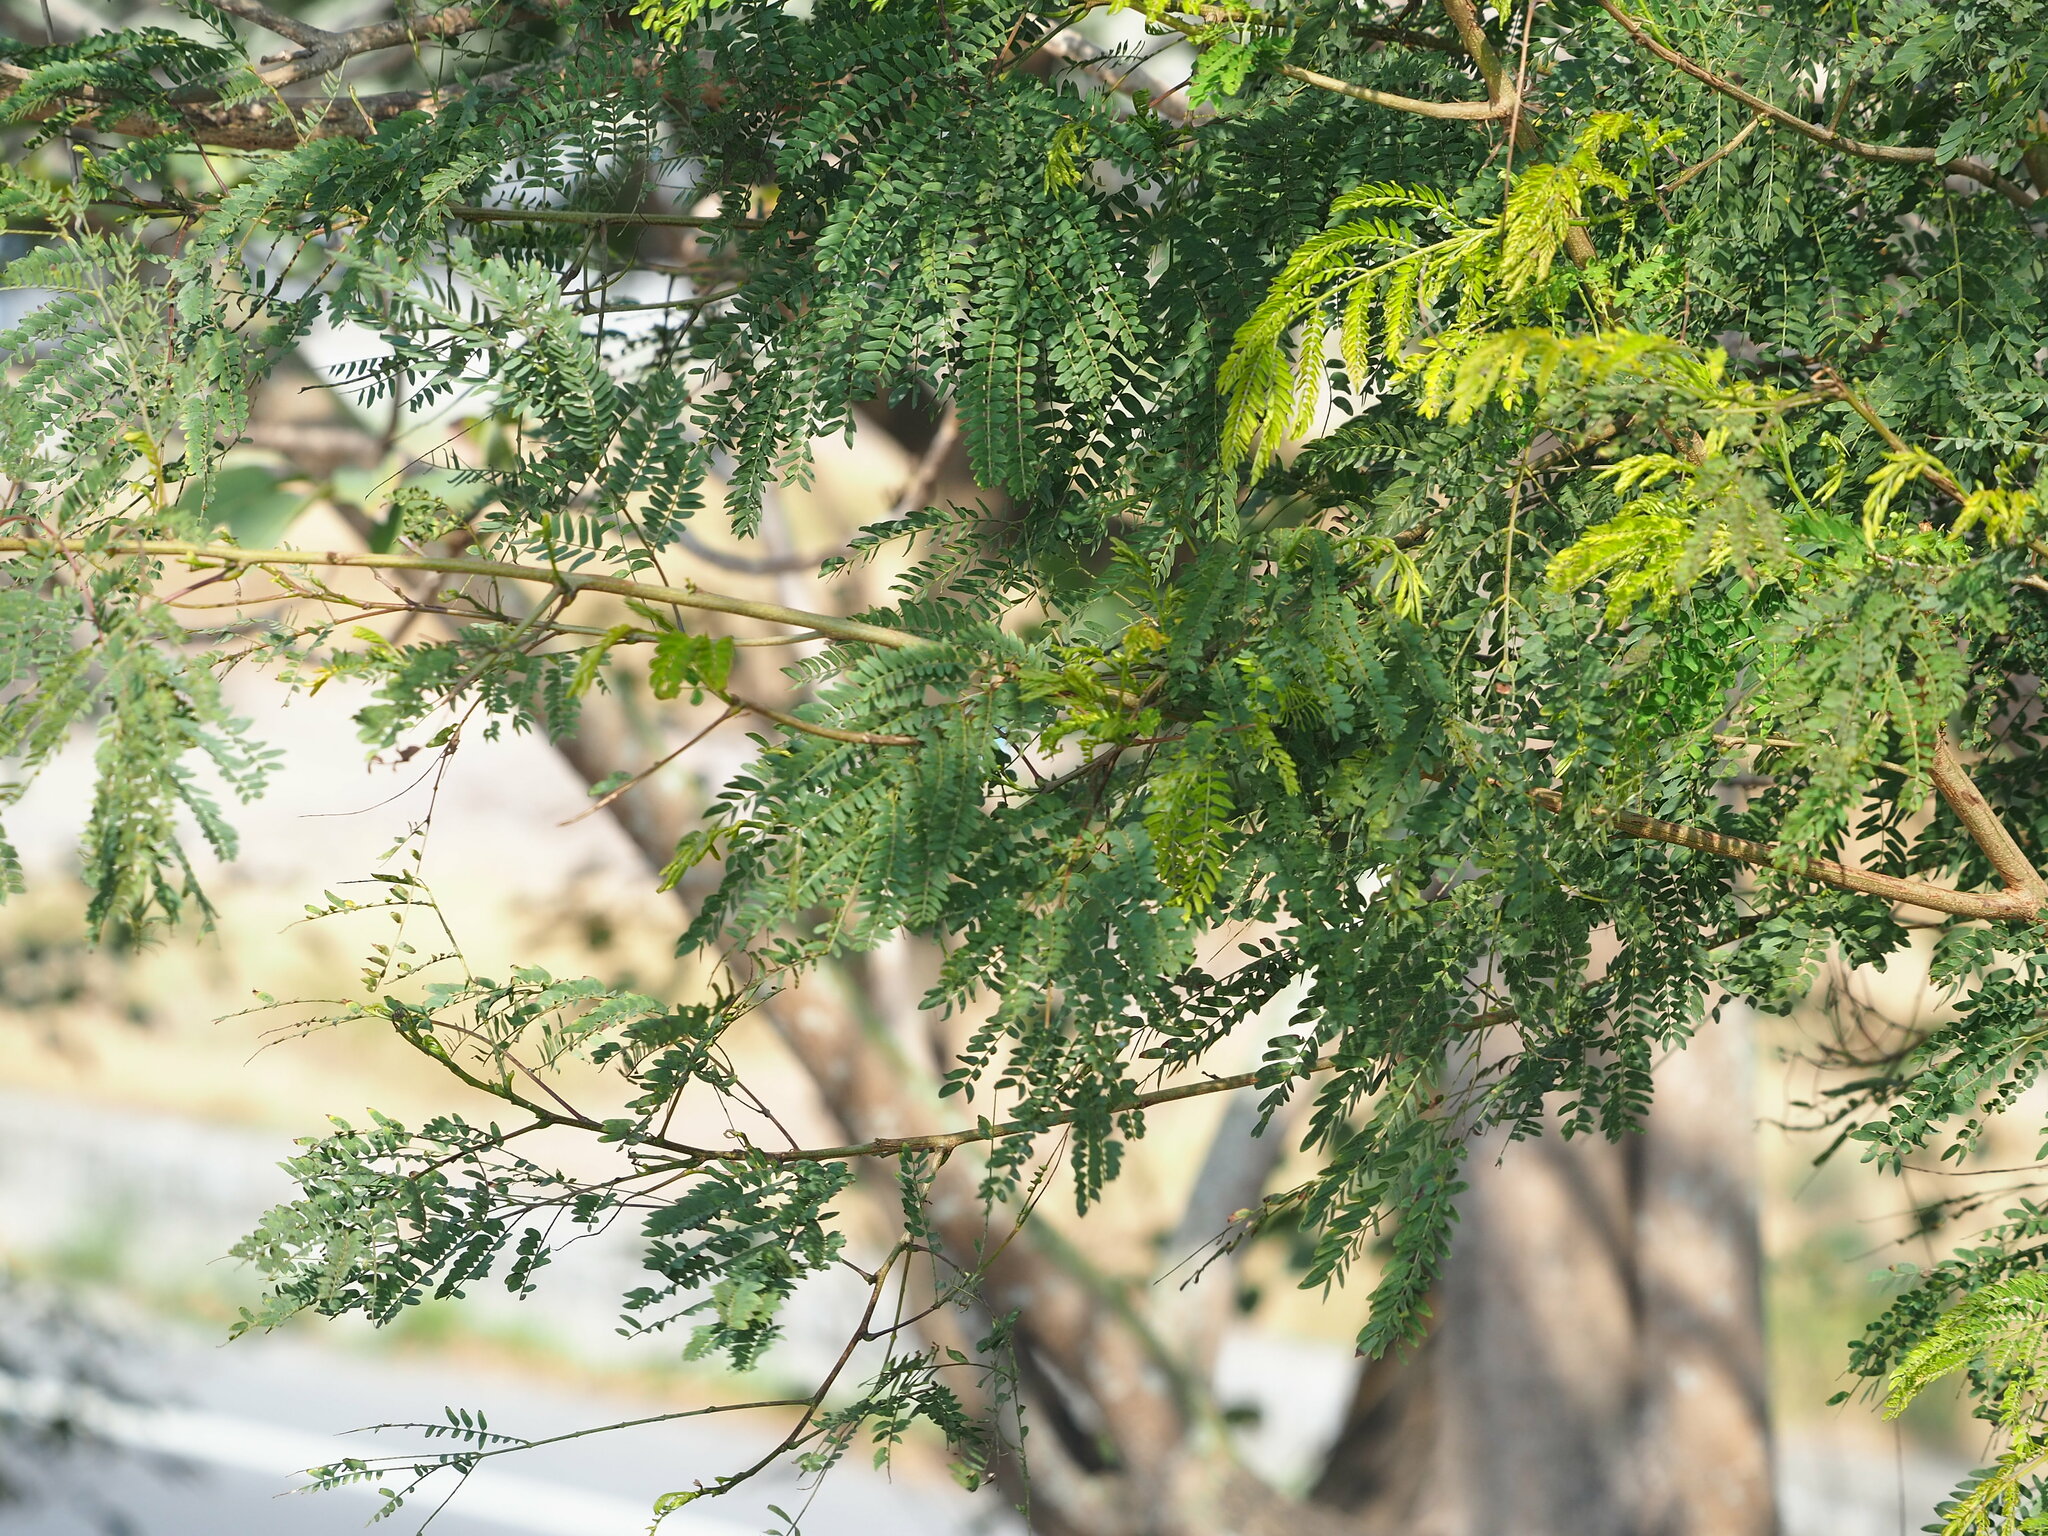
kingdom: Plantae
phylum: Tracheophyta
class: Magnoliopsida
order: Fabales
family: Fabaceae
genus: Leucaena
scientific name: Leucaena leucocephala
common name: White leadtree
